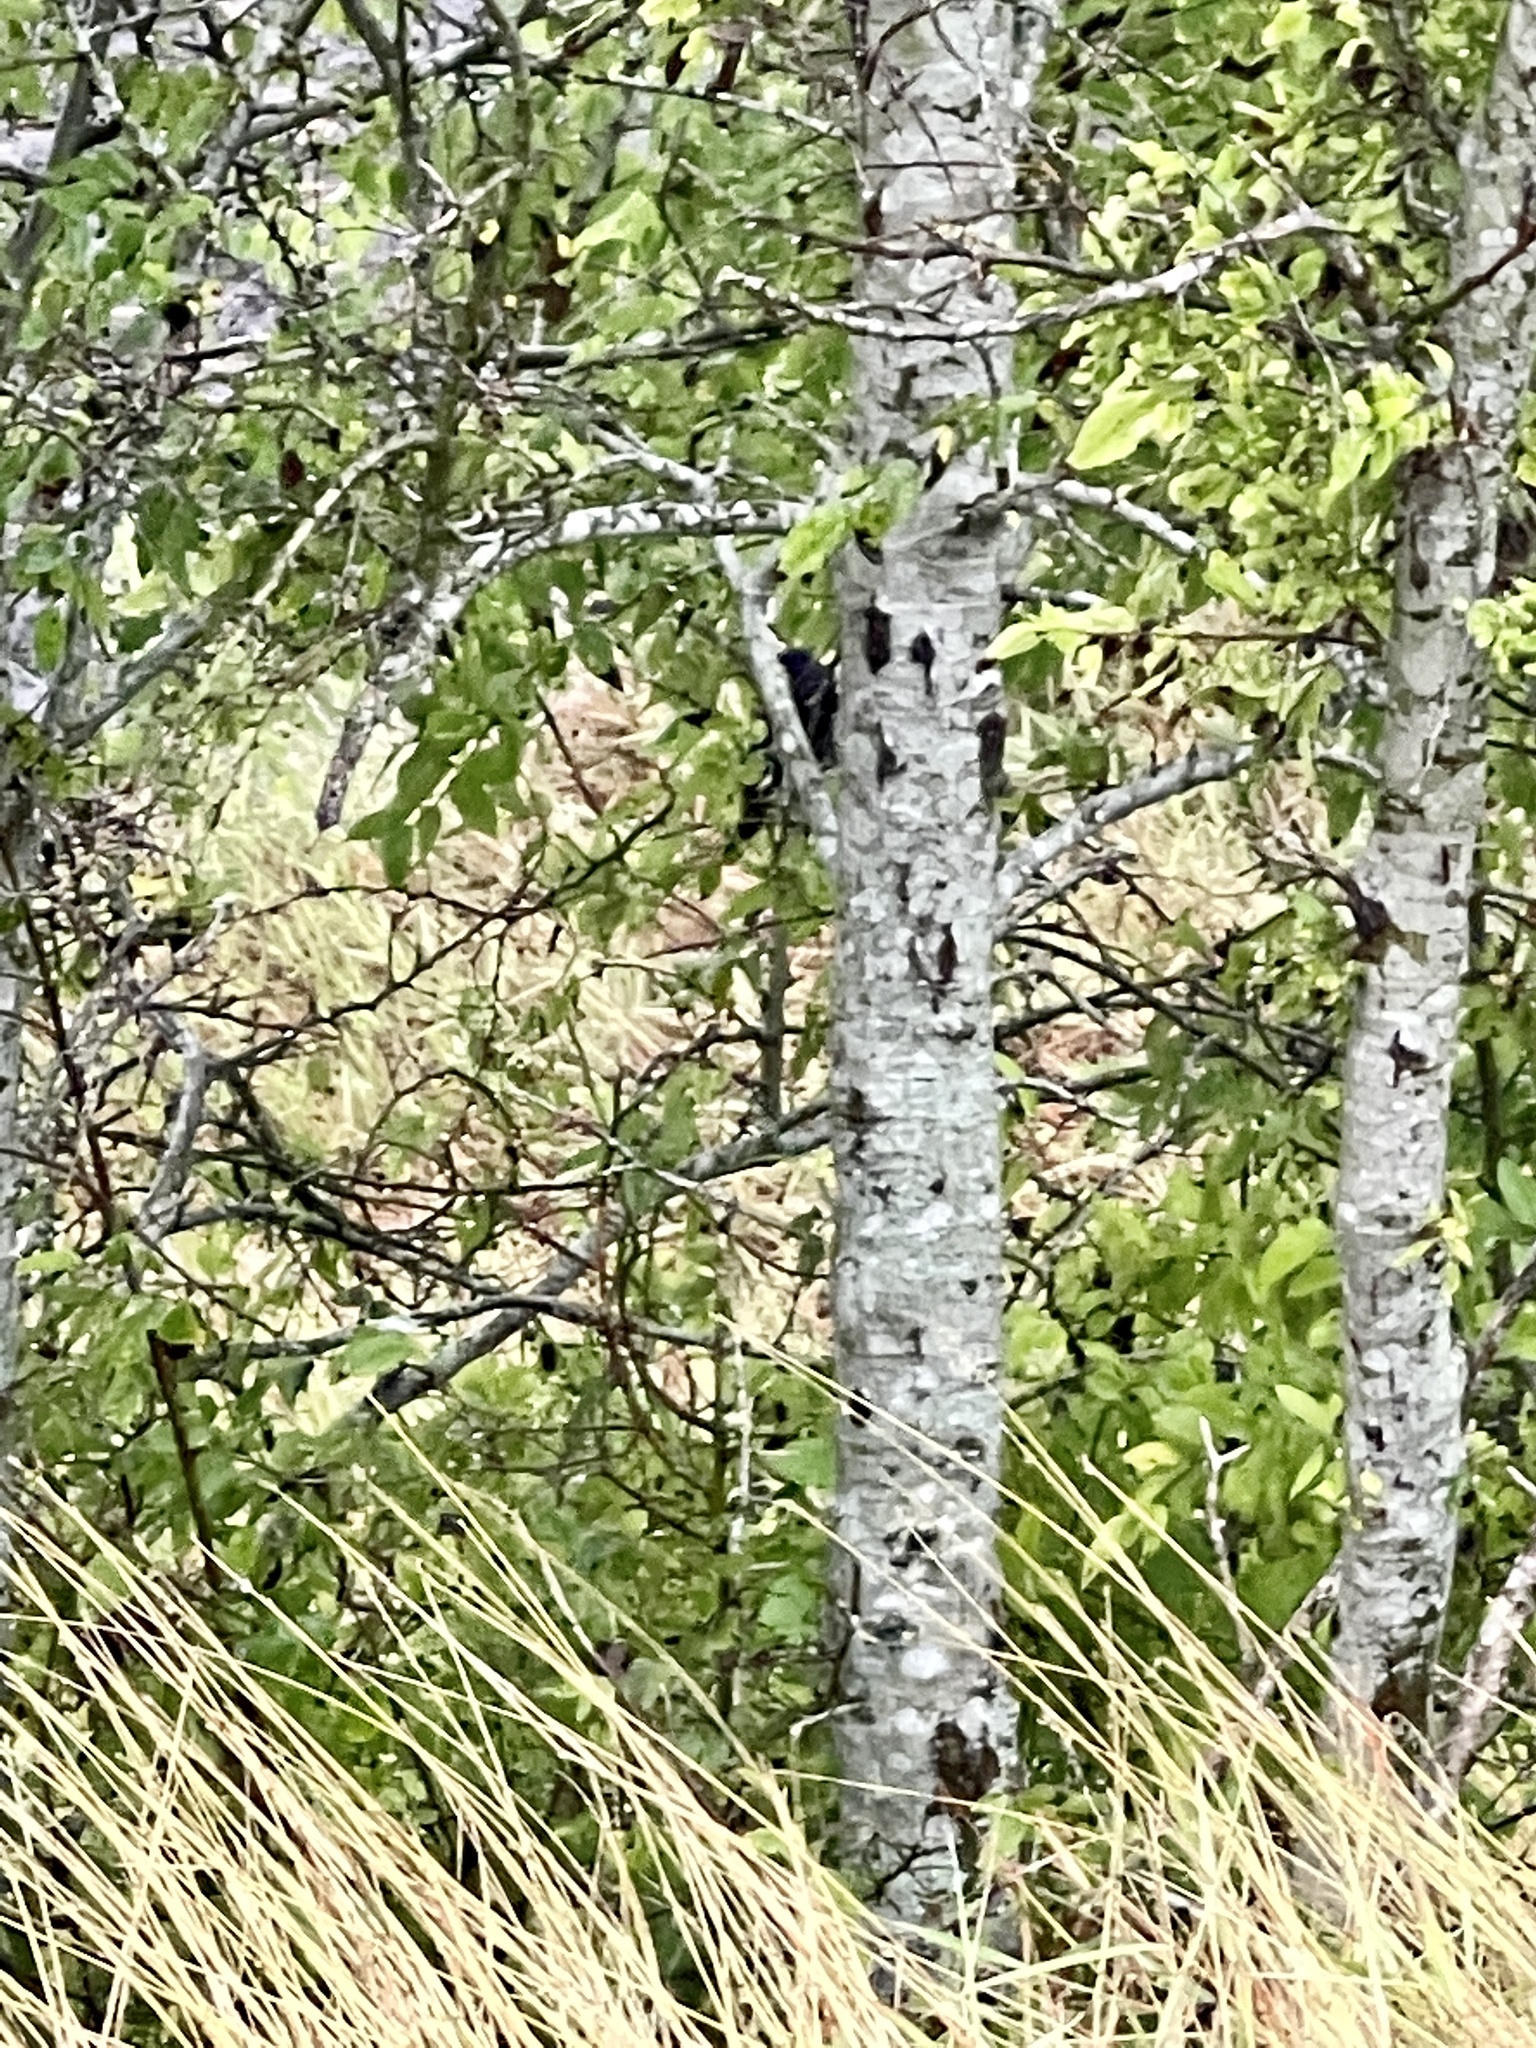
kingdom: Plantae
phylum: Tracheophyta
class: Magnoliopsida
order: Rosales
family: Cannabaceae
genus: Celtis
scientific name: Celtis reticulata
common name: Netleaf hackberry
